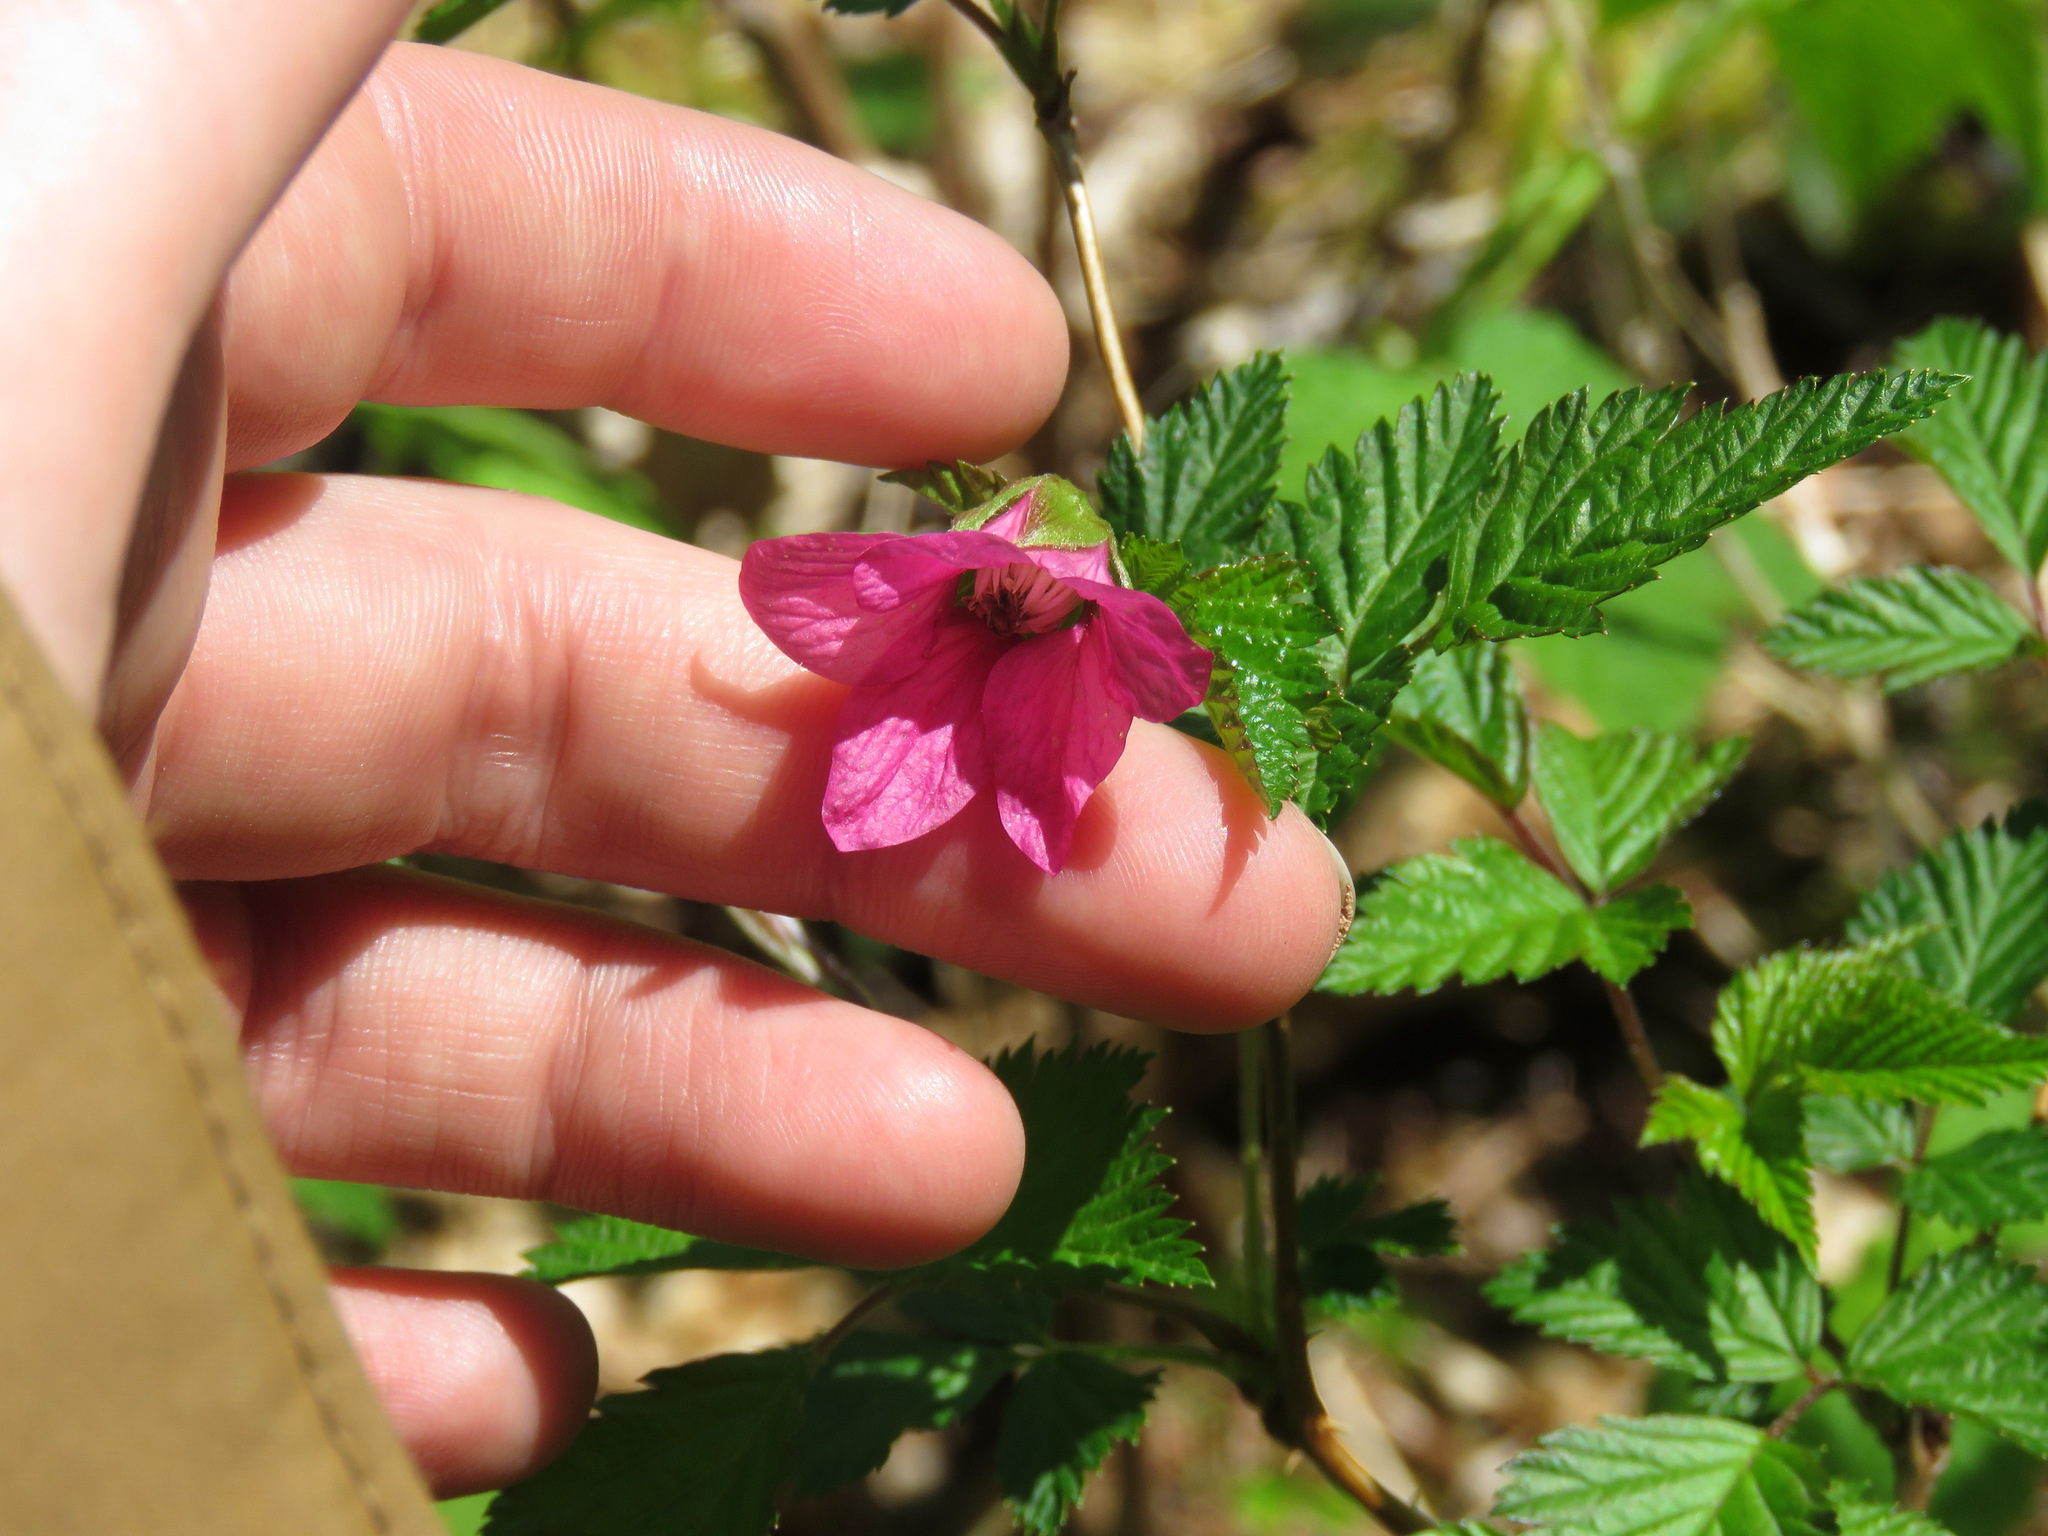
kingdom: Plantae
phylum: Tracheophyta
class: Magnoliopsida
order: Rosales
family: Rosaceae
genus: Rubus
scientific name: Rubus spectabilis
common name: Salmonberry
